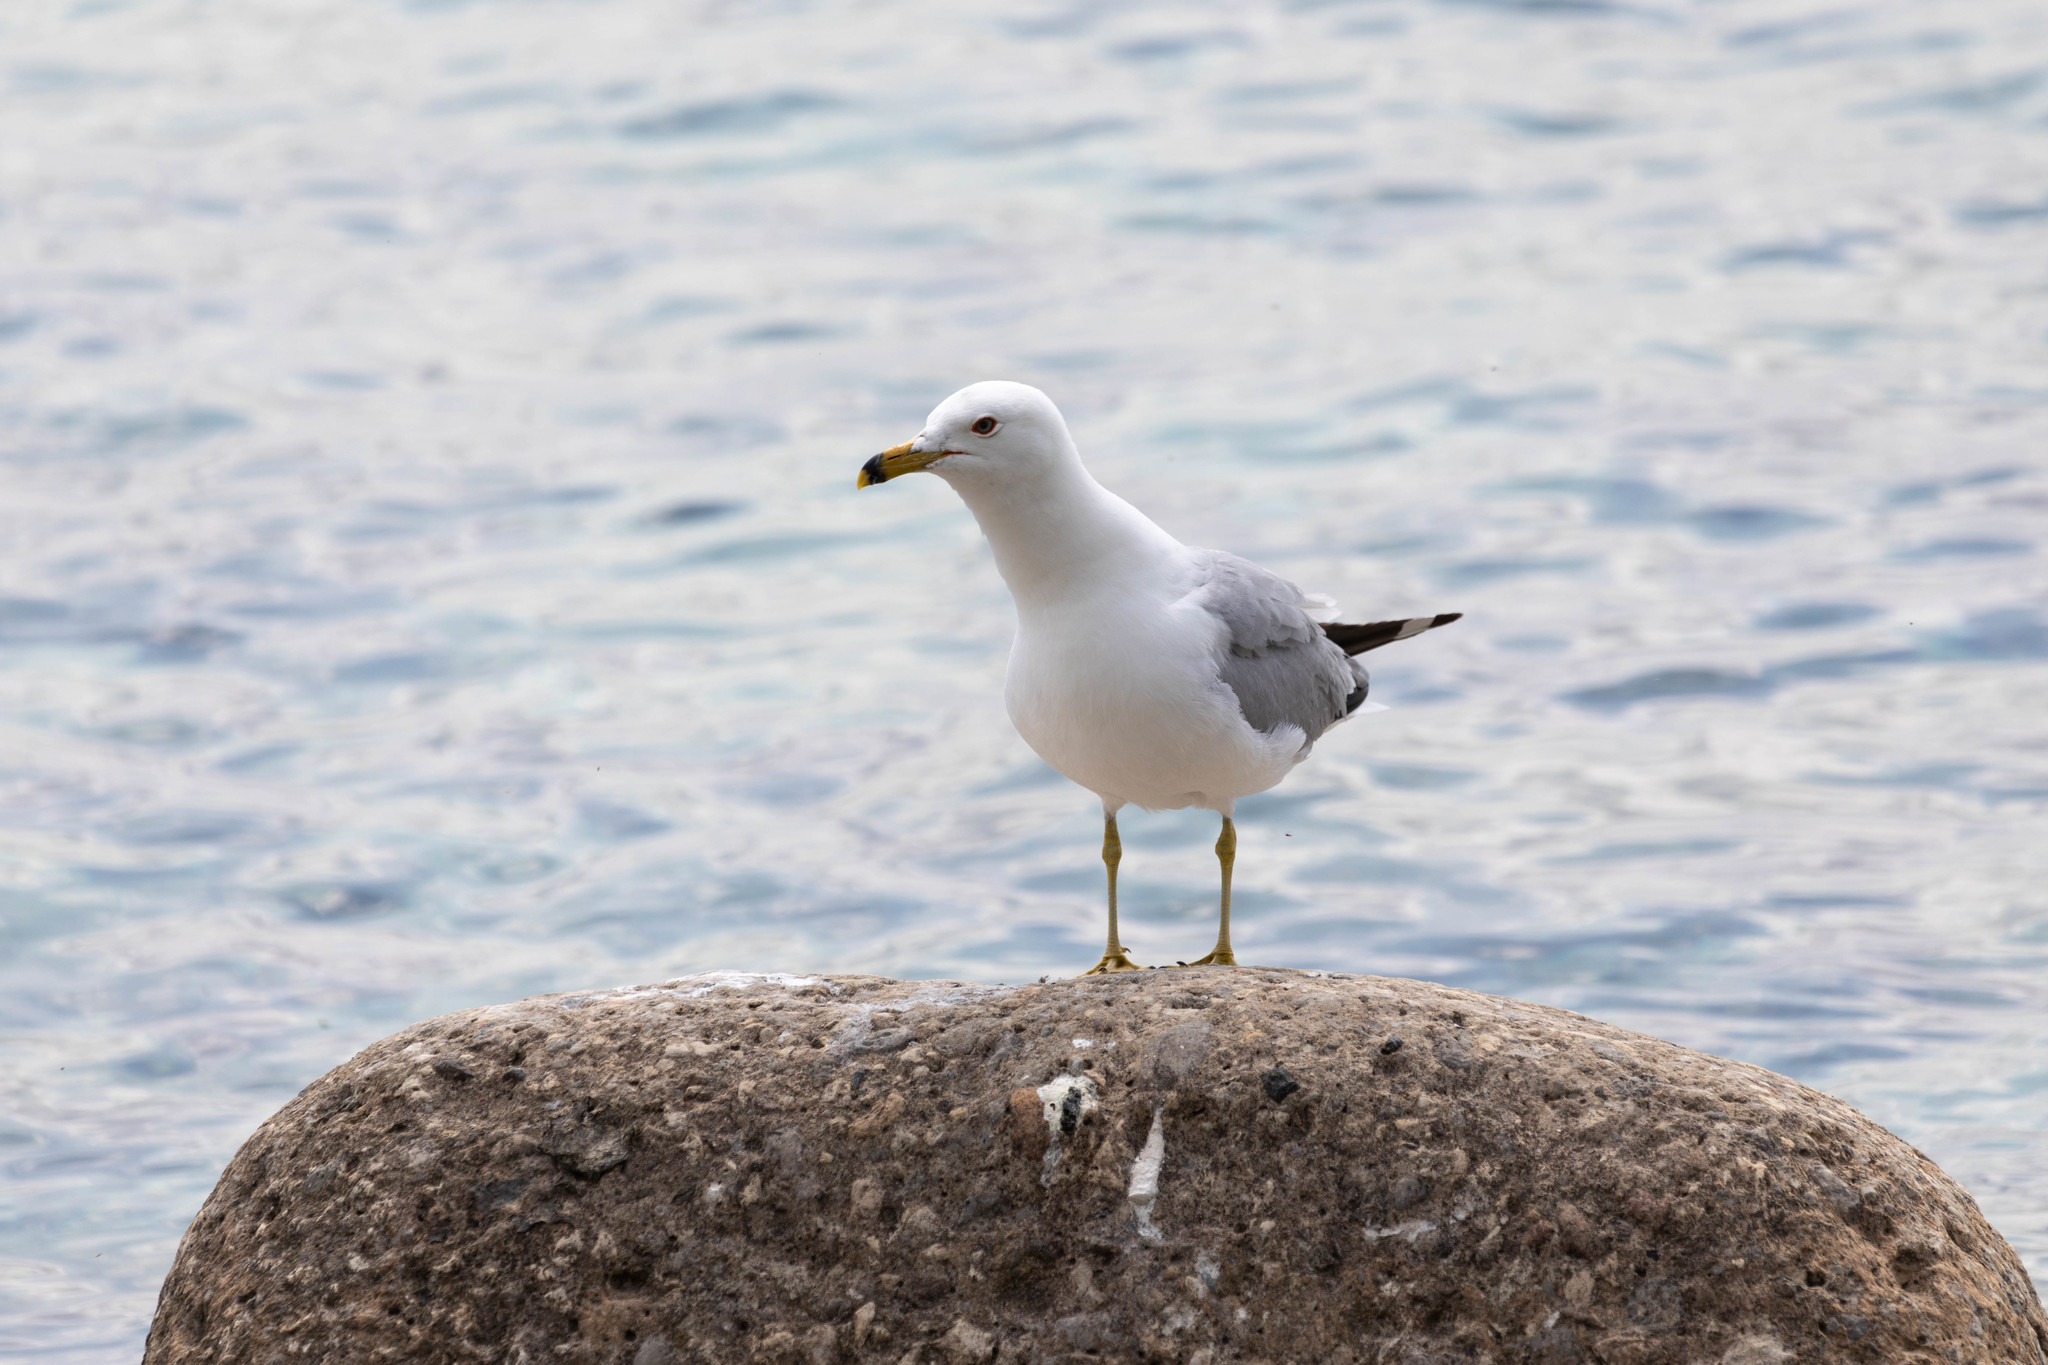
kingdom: Animalia
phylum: Chordata
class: Aves
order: Charadriiformes
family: Laridae
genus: Larus
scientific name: Larus delawarensis
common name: Ring-billed gull
